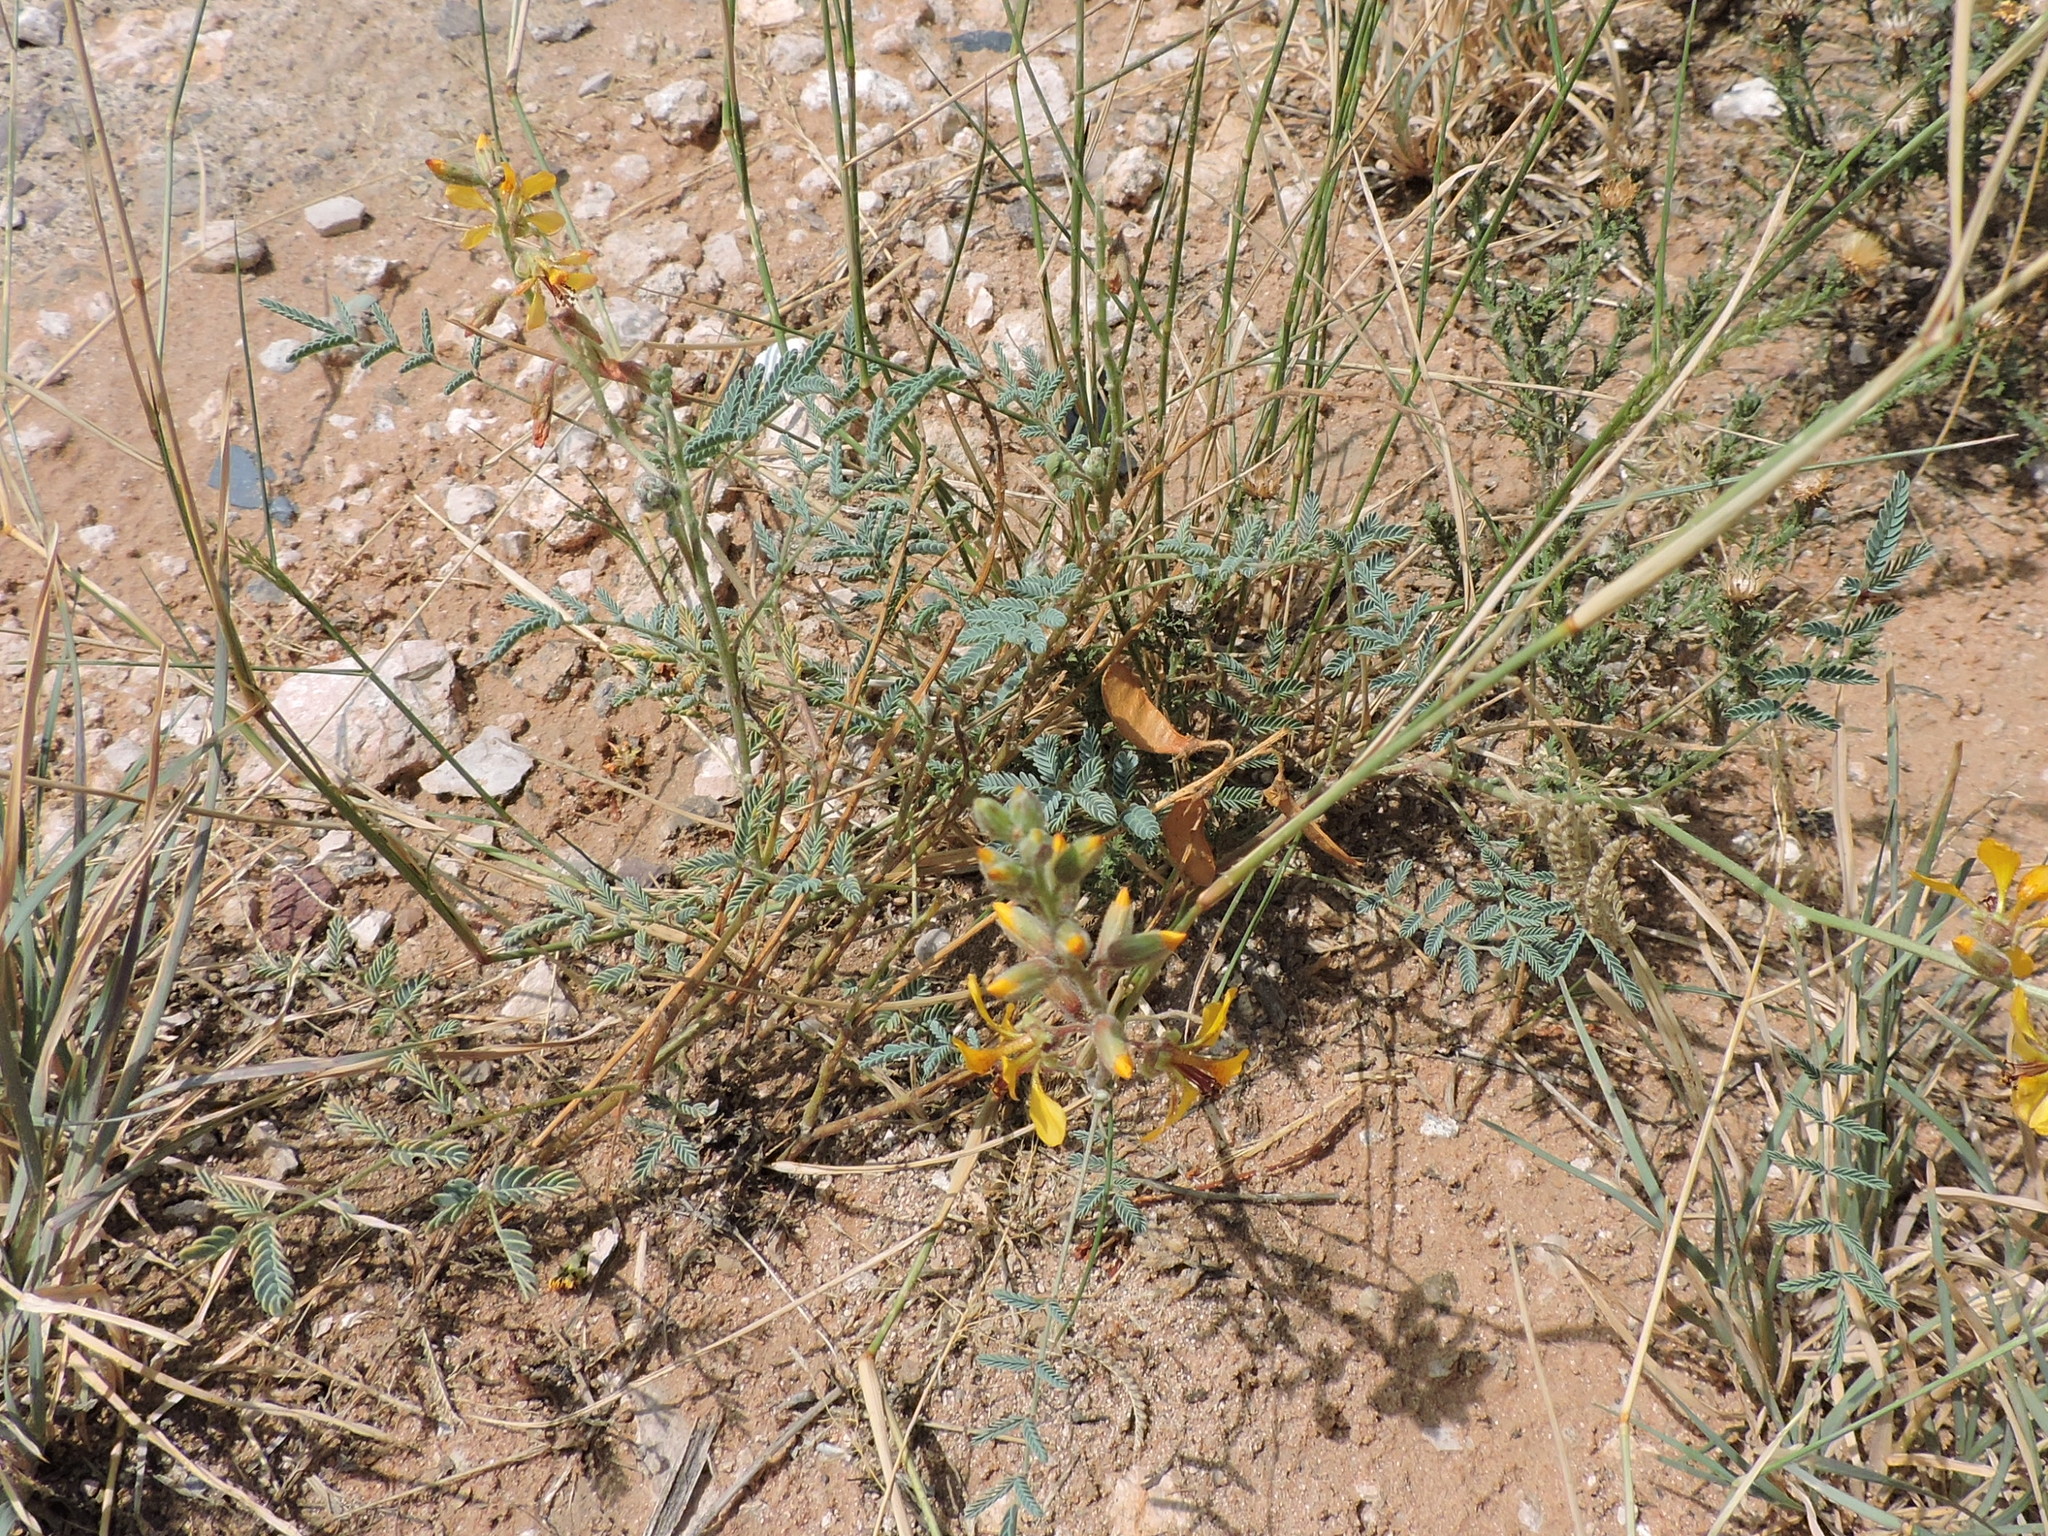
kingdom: Plantae
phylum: Tracheophyta
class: Magnoliopsida
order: Fabales
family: Fabaceae
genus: Hoffmannseggia
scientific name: Hoffmannseggia glauca
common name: Pignut
